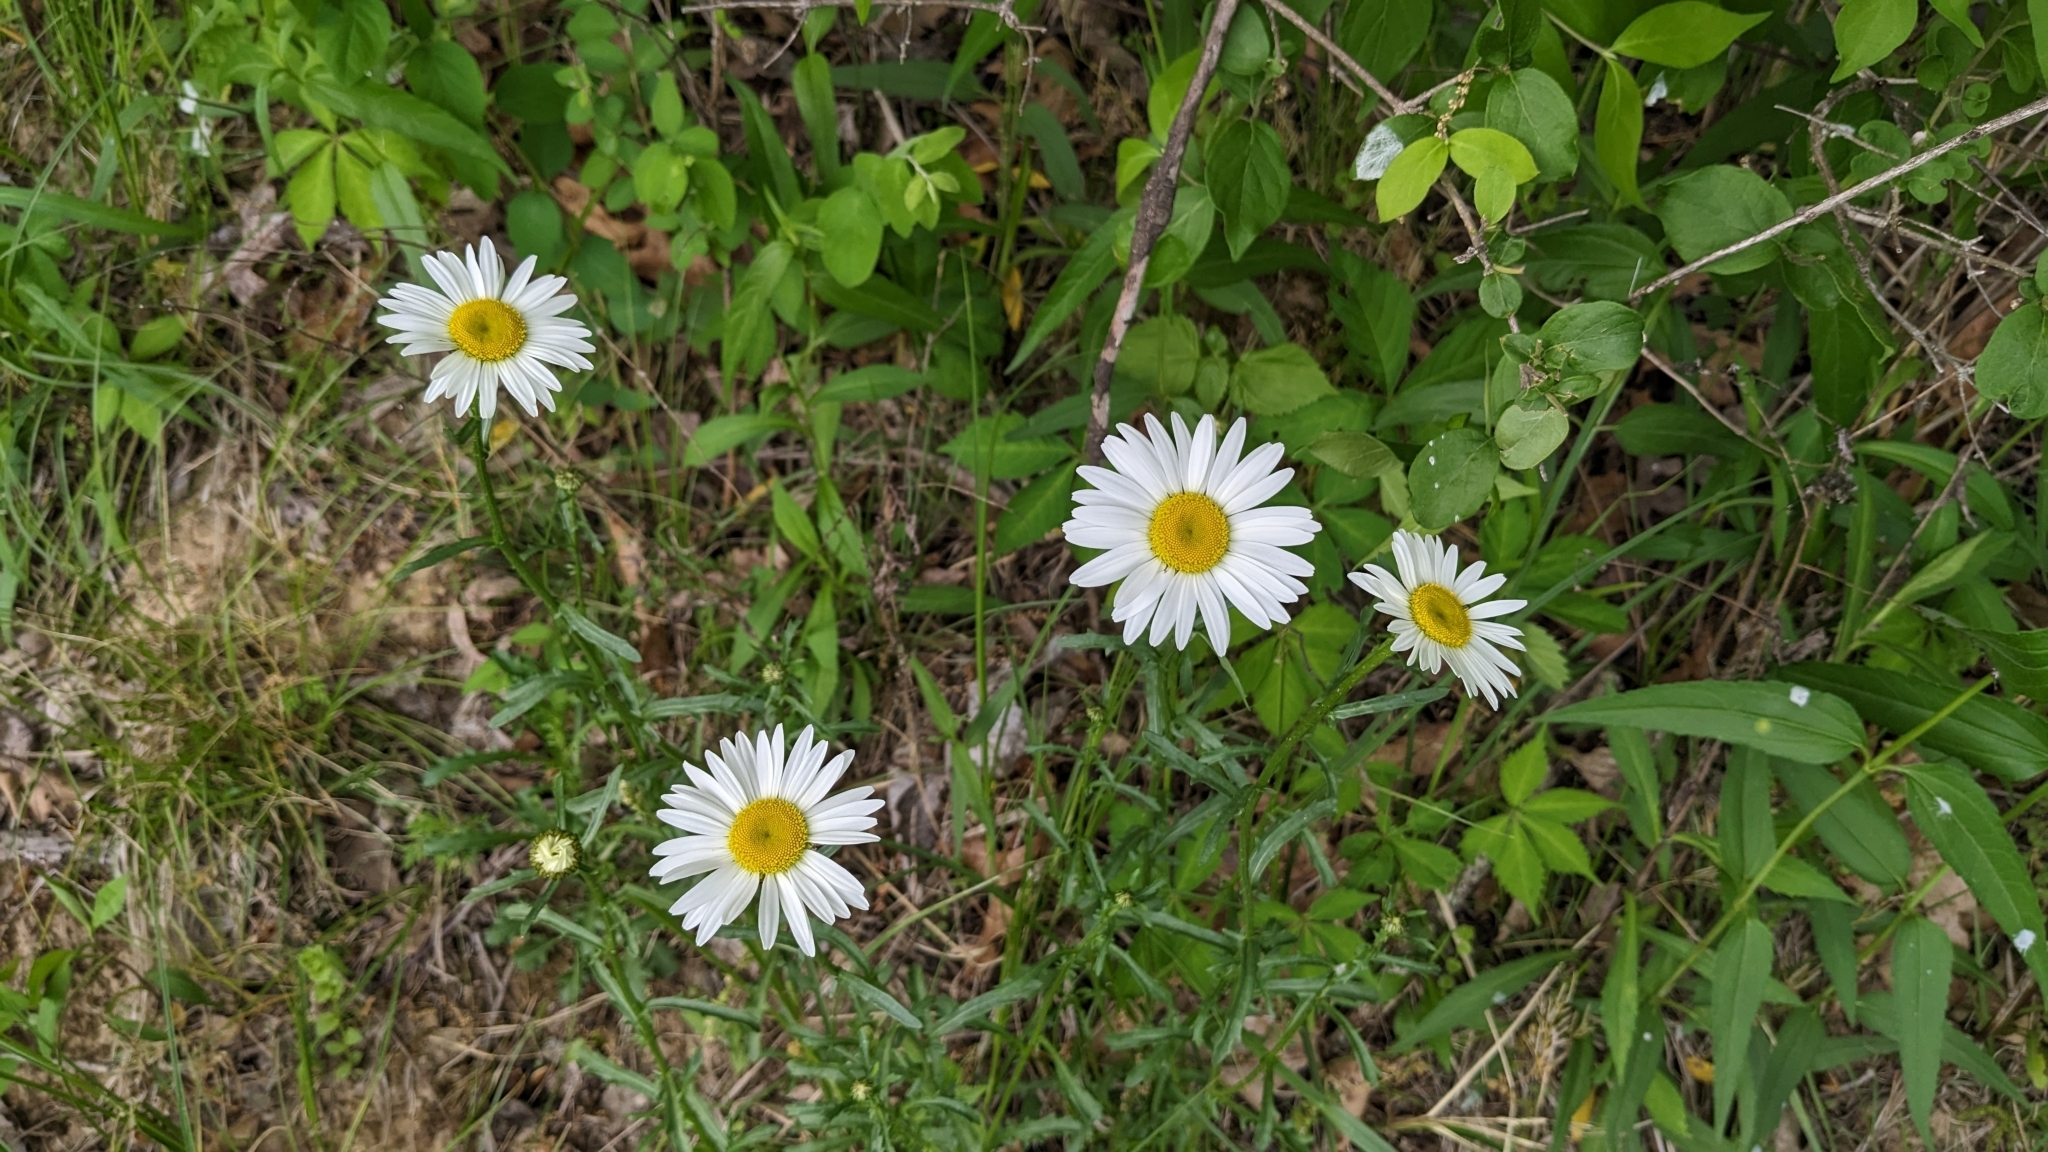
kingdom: Plantae
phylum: Tracheophyta
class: Magnoliopsida
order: Asterales
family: Asteraceae
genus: Leucanthemum
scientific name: Leucanthemum vulgare
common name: Oxeye daisy
